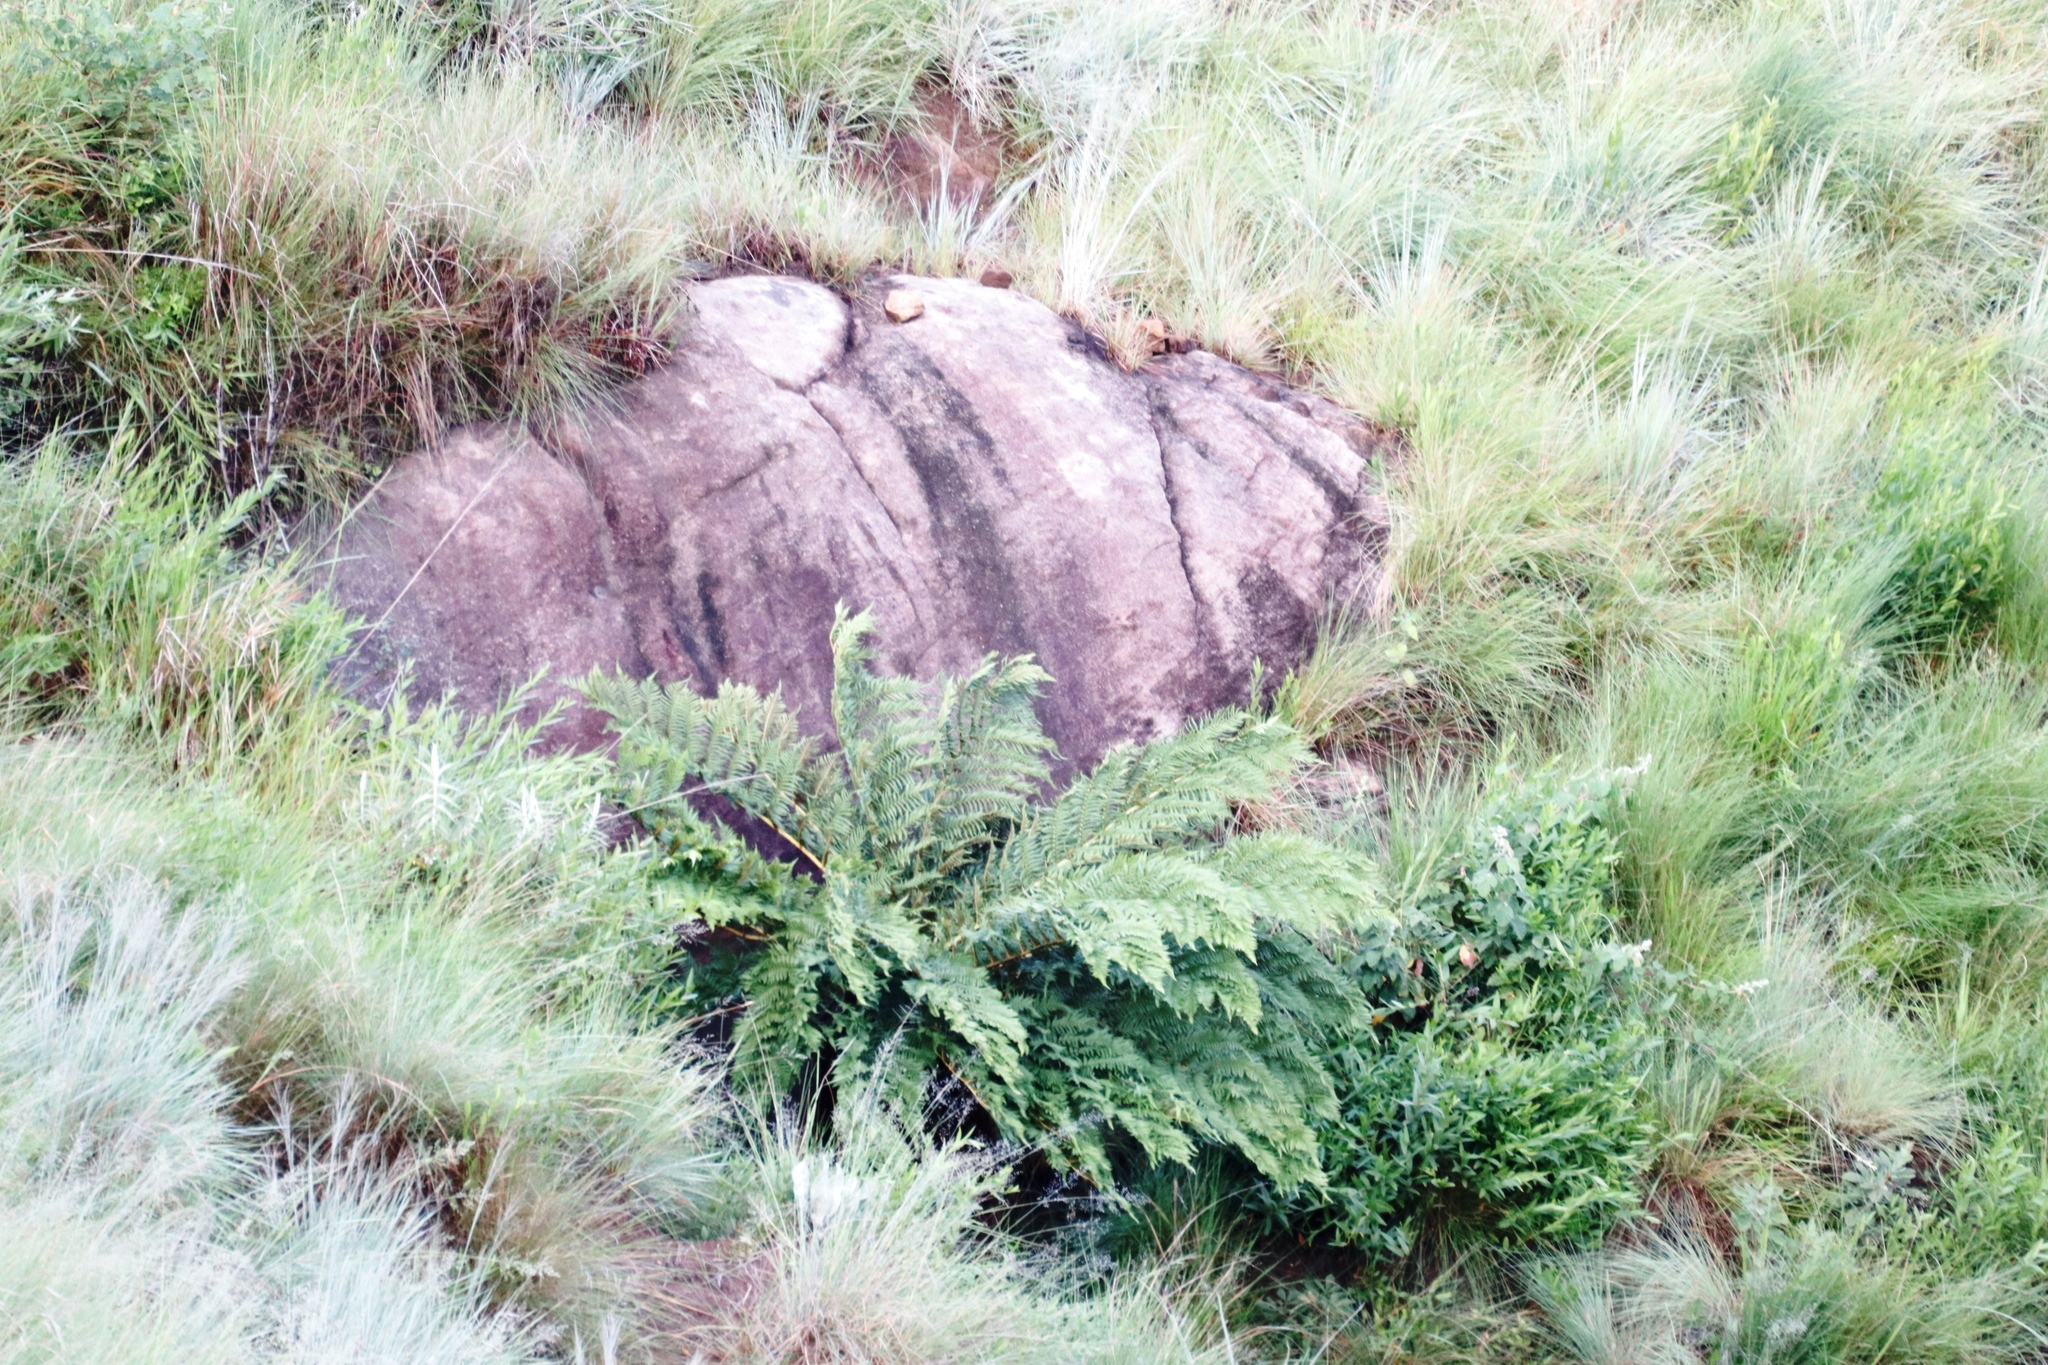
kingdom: Plantae
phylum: Tracheophyta
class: Polypodiopsida
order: Cyatheales
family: Cyatheaceae
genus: Alsophila
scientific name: Alsophila dregei
